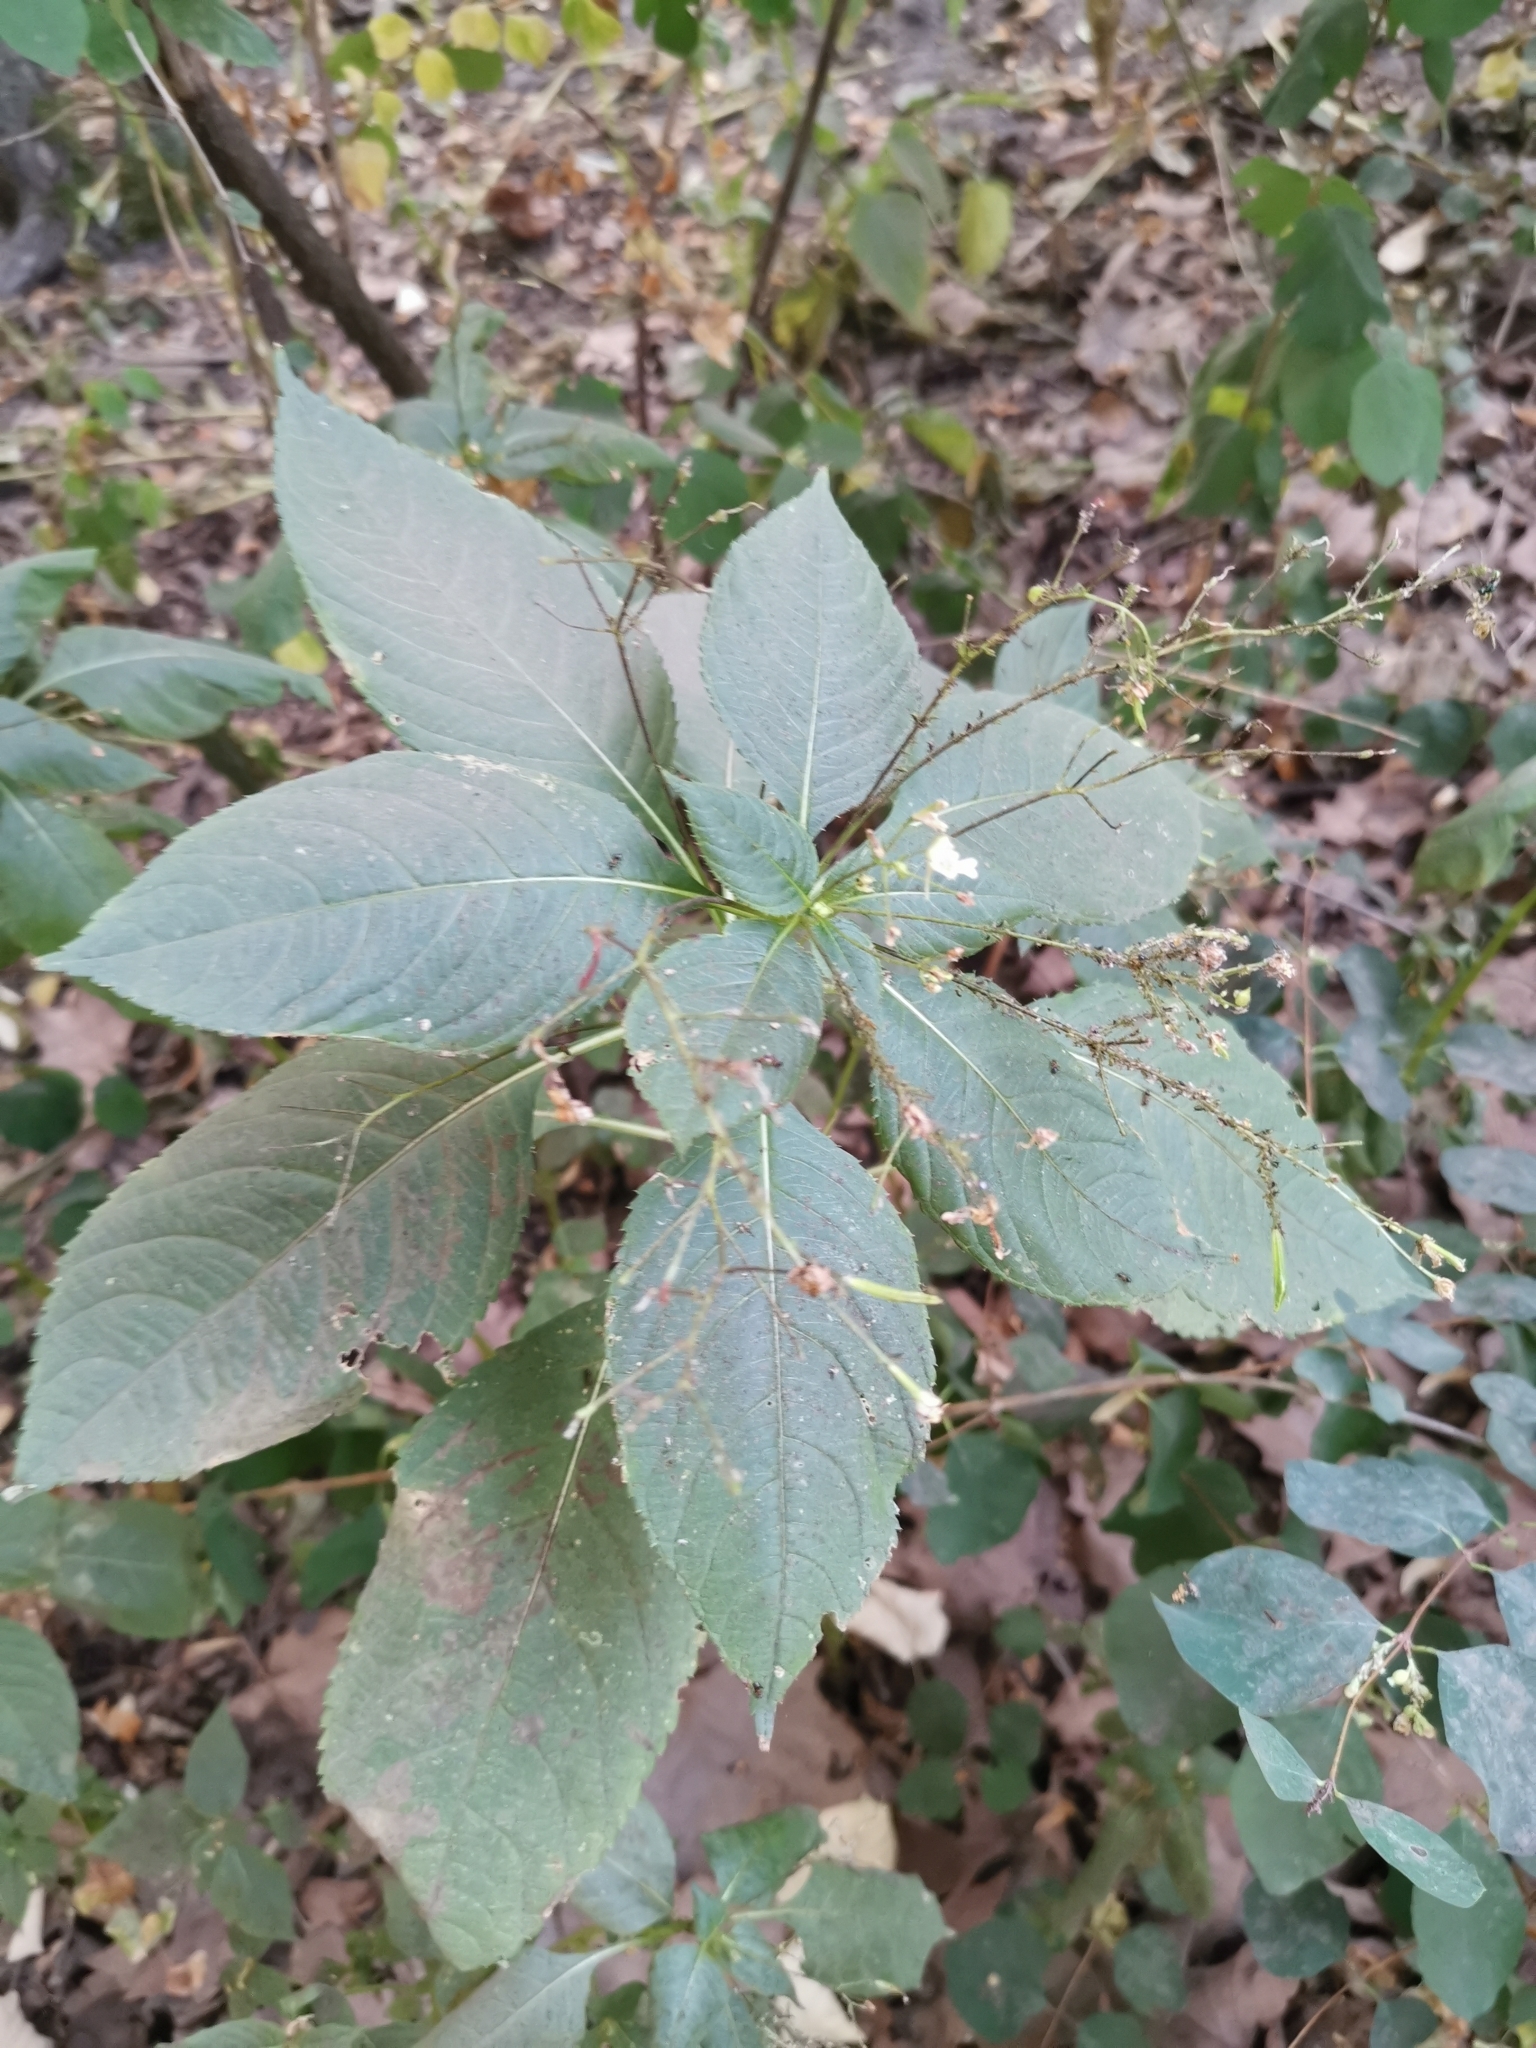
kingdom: Plantae
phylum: Tracheophyta
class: Magnoliopsida
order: Ericales
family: Balsaminaceae
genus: Impatiens
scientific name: Impatiens parviflora
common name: Small balsam
